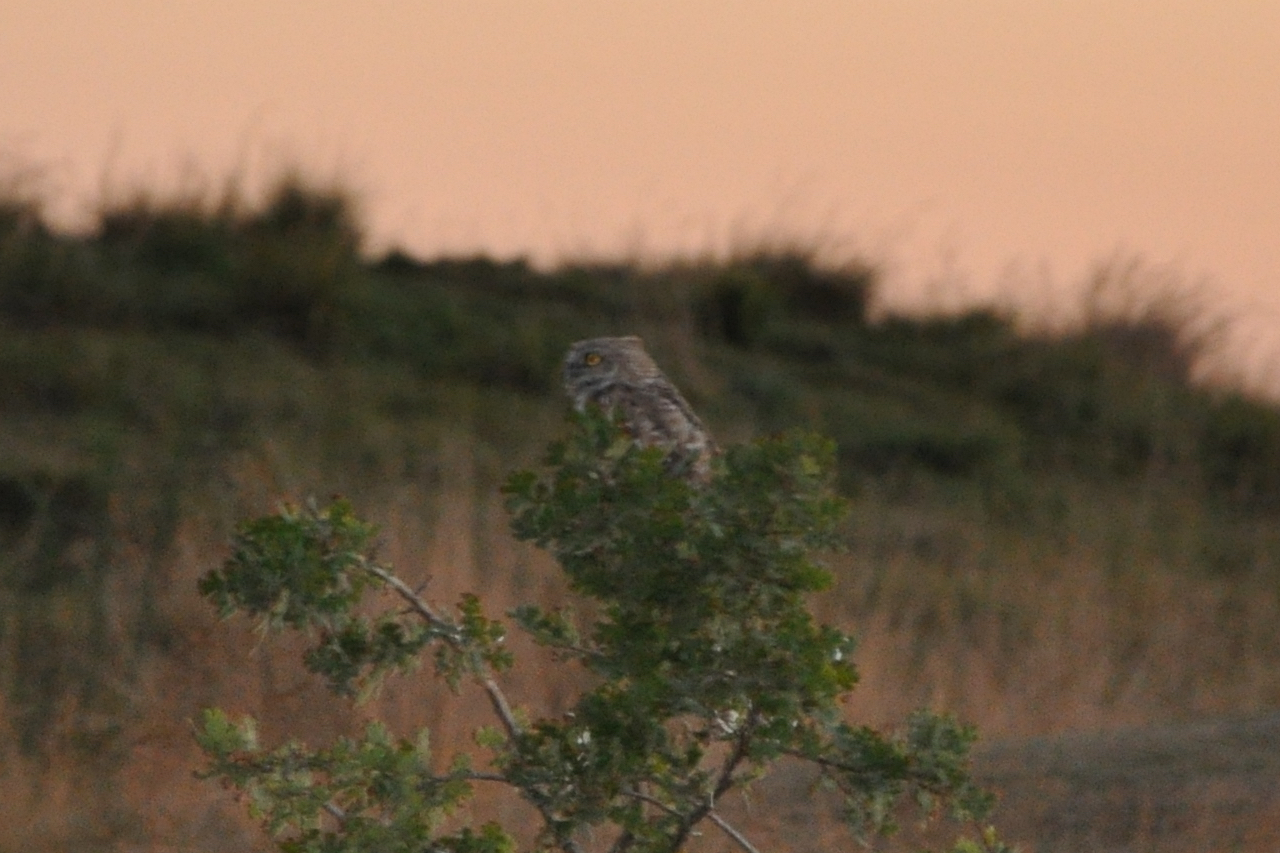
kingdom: Animalia
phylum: Chordata
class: Aves
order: Strigiformes
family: Strigidae
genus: Athene
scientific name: Athene cunicularia
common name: Burrowing owl
